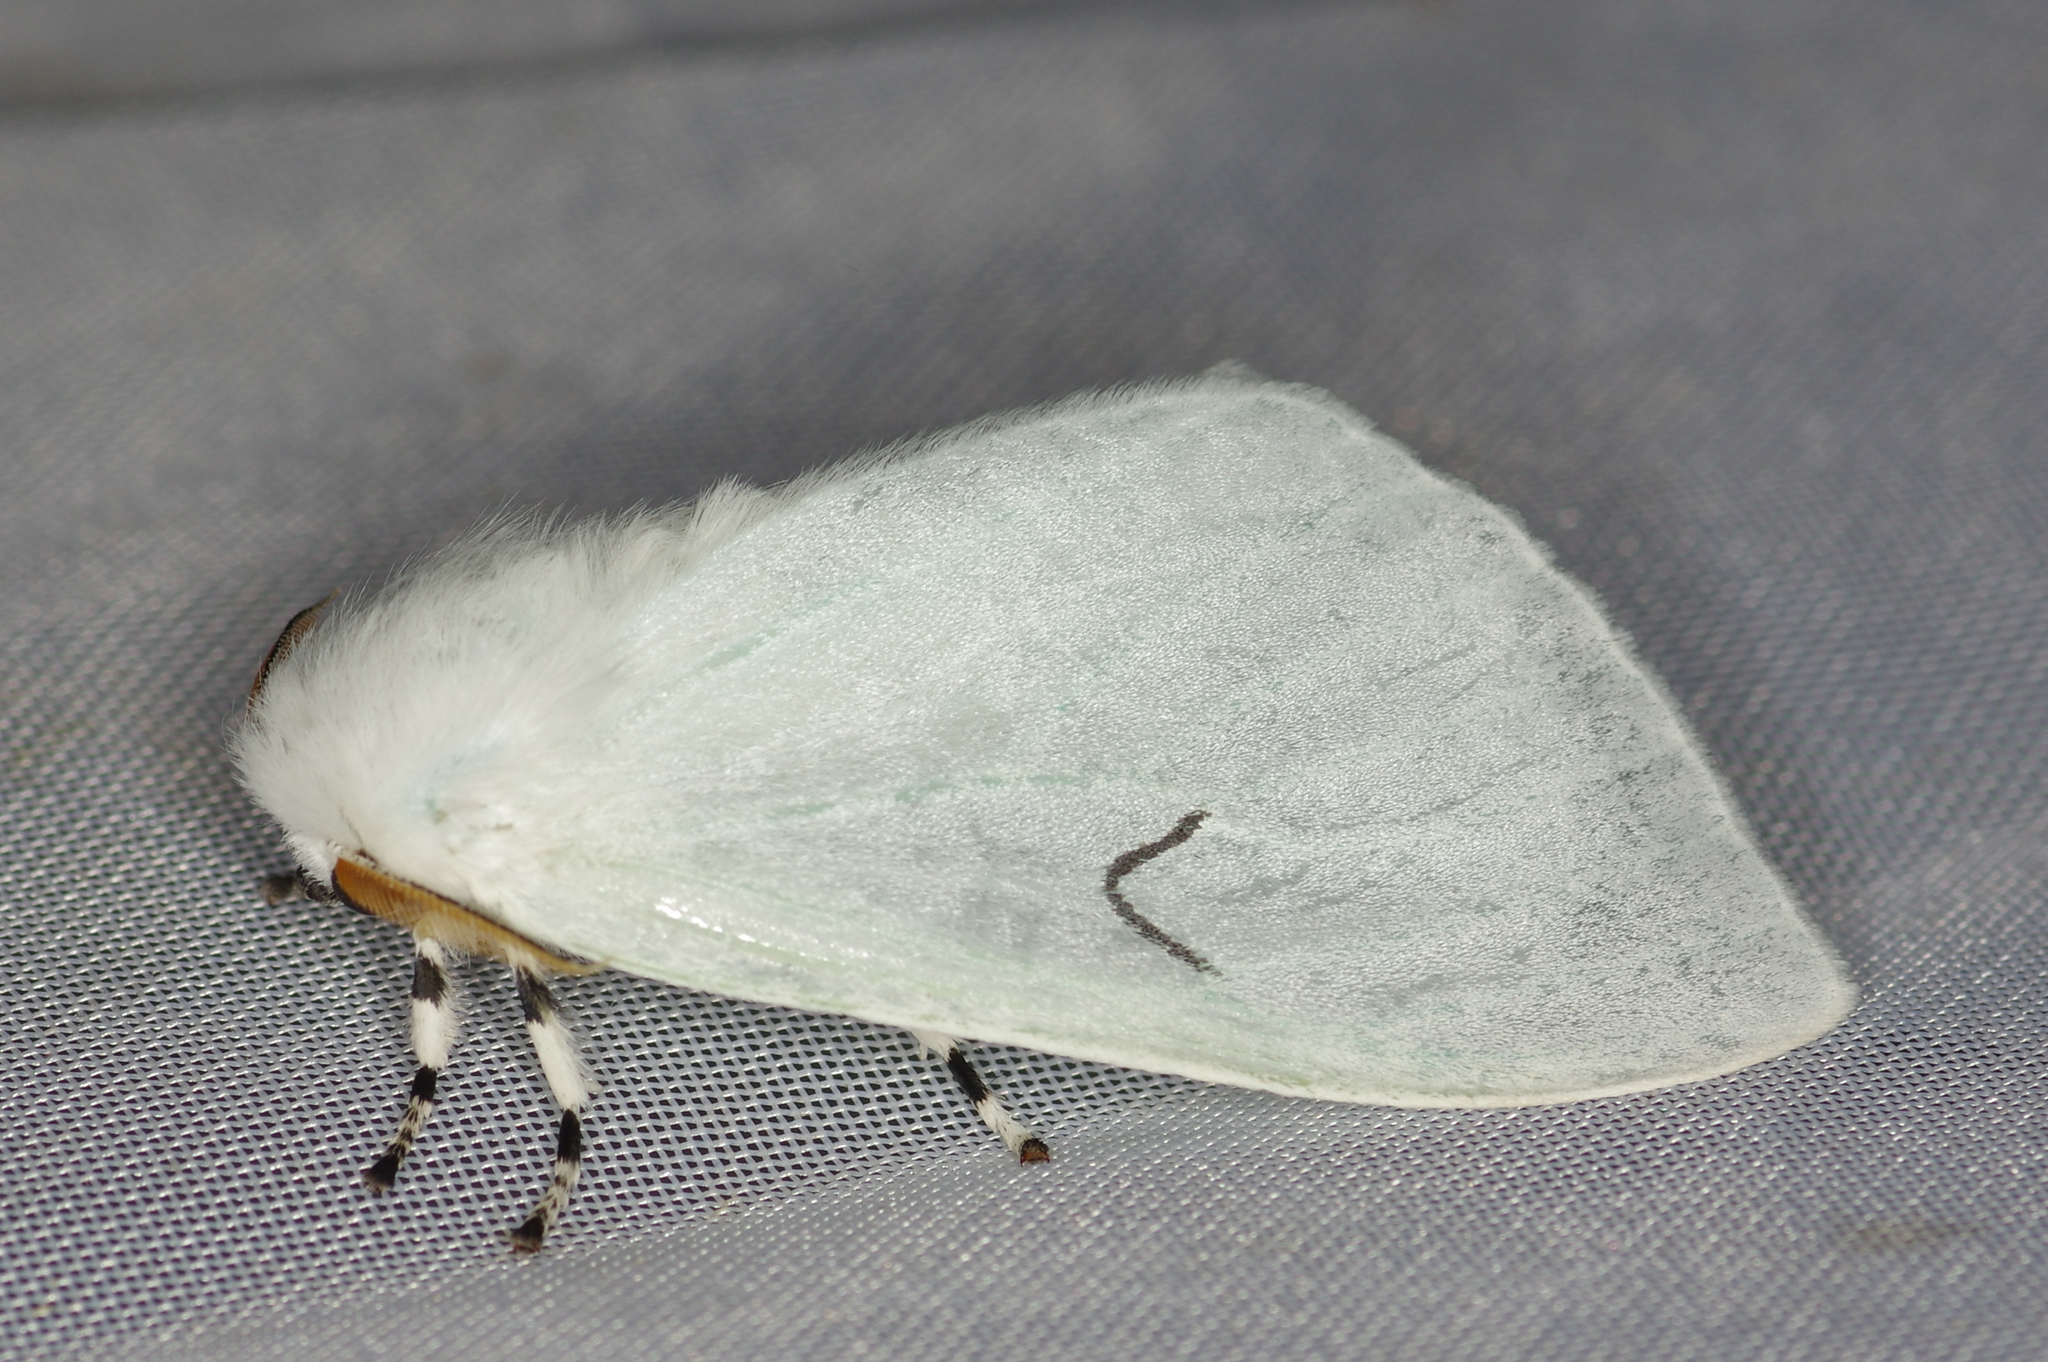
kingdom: Animalia
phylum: Arthropoda
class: Insecta
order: Lepidoptera
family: Erebidae
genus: Arctornis
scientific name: Arctornis l-nigrum
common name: Black v moth
